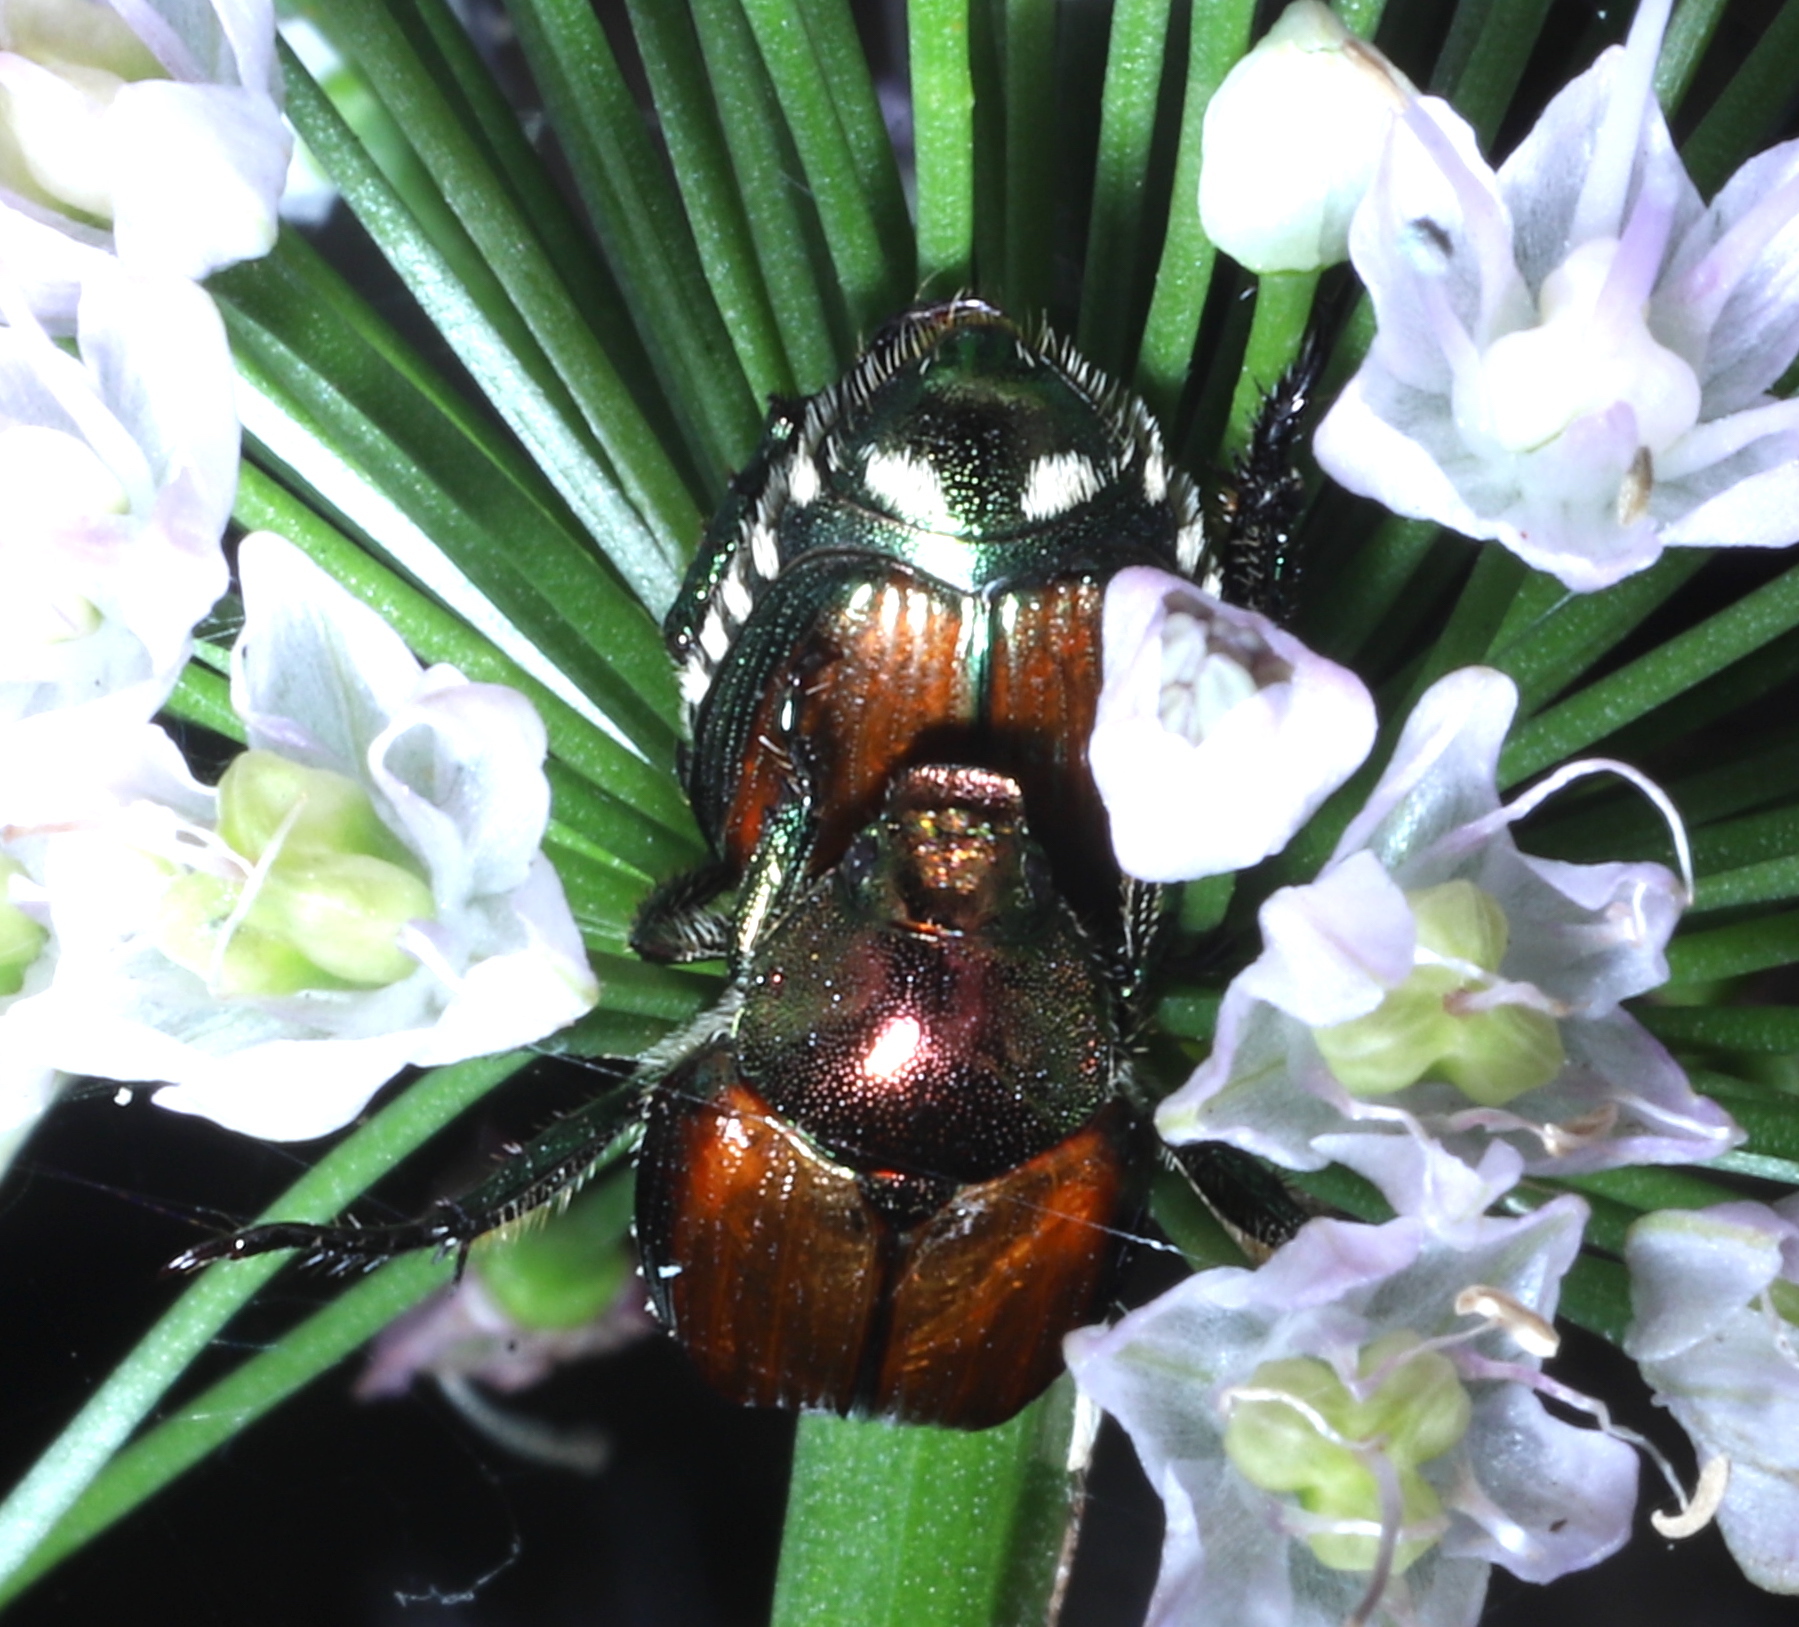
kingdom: Animalia
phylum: Arthropoda
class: Insecta
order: Coleoptera
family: Scarabaeidae
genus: Popillia
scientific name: Popillia japonica
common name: Japanese beetle
